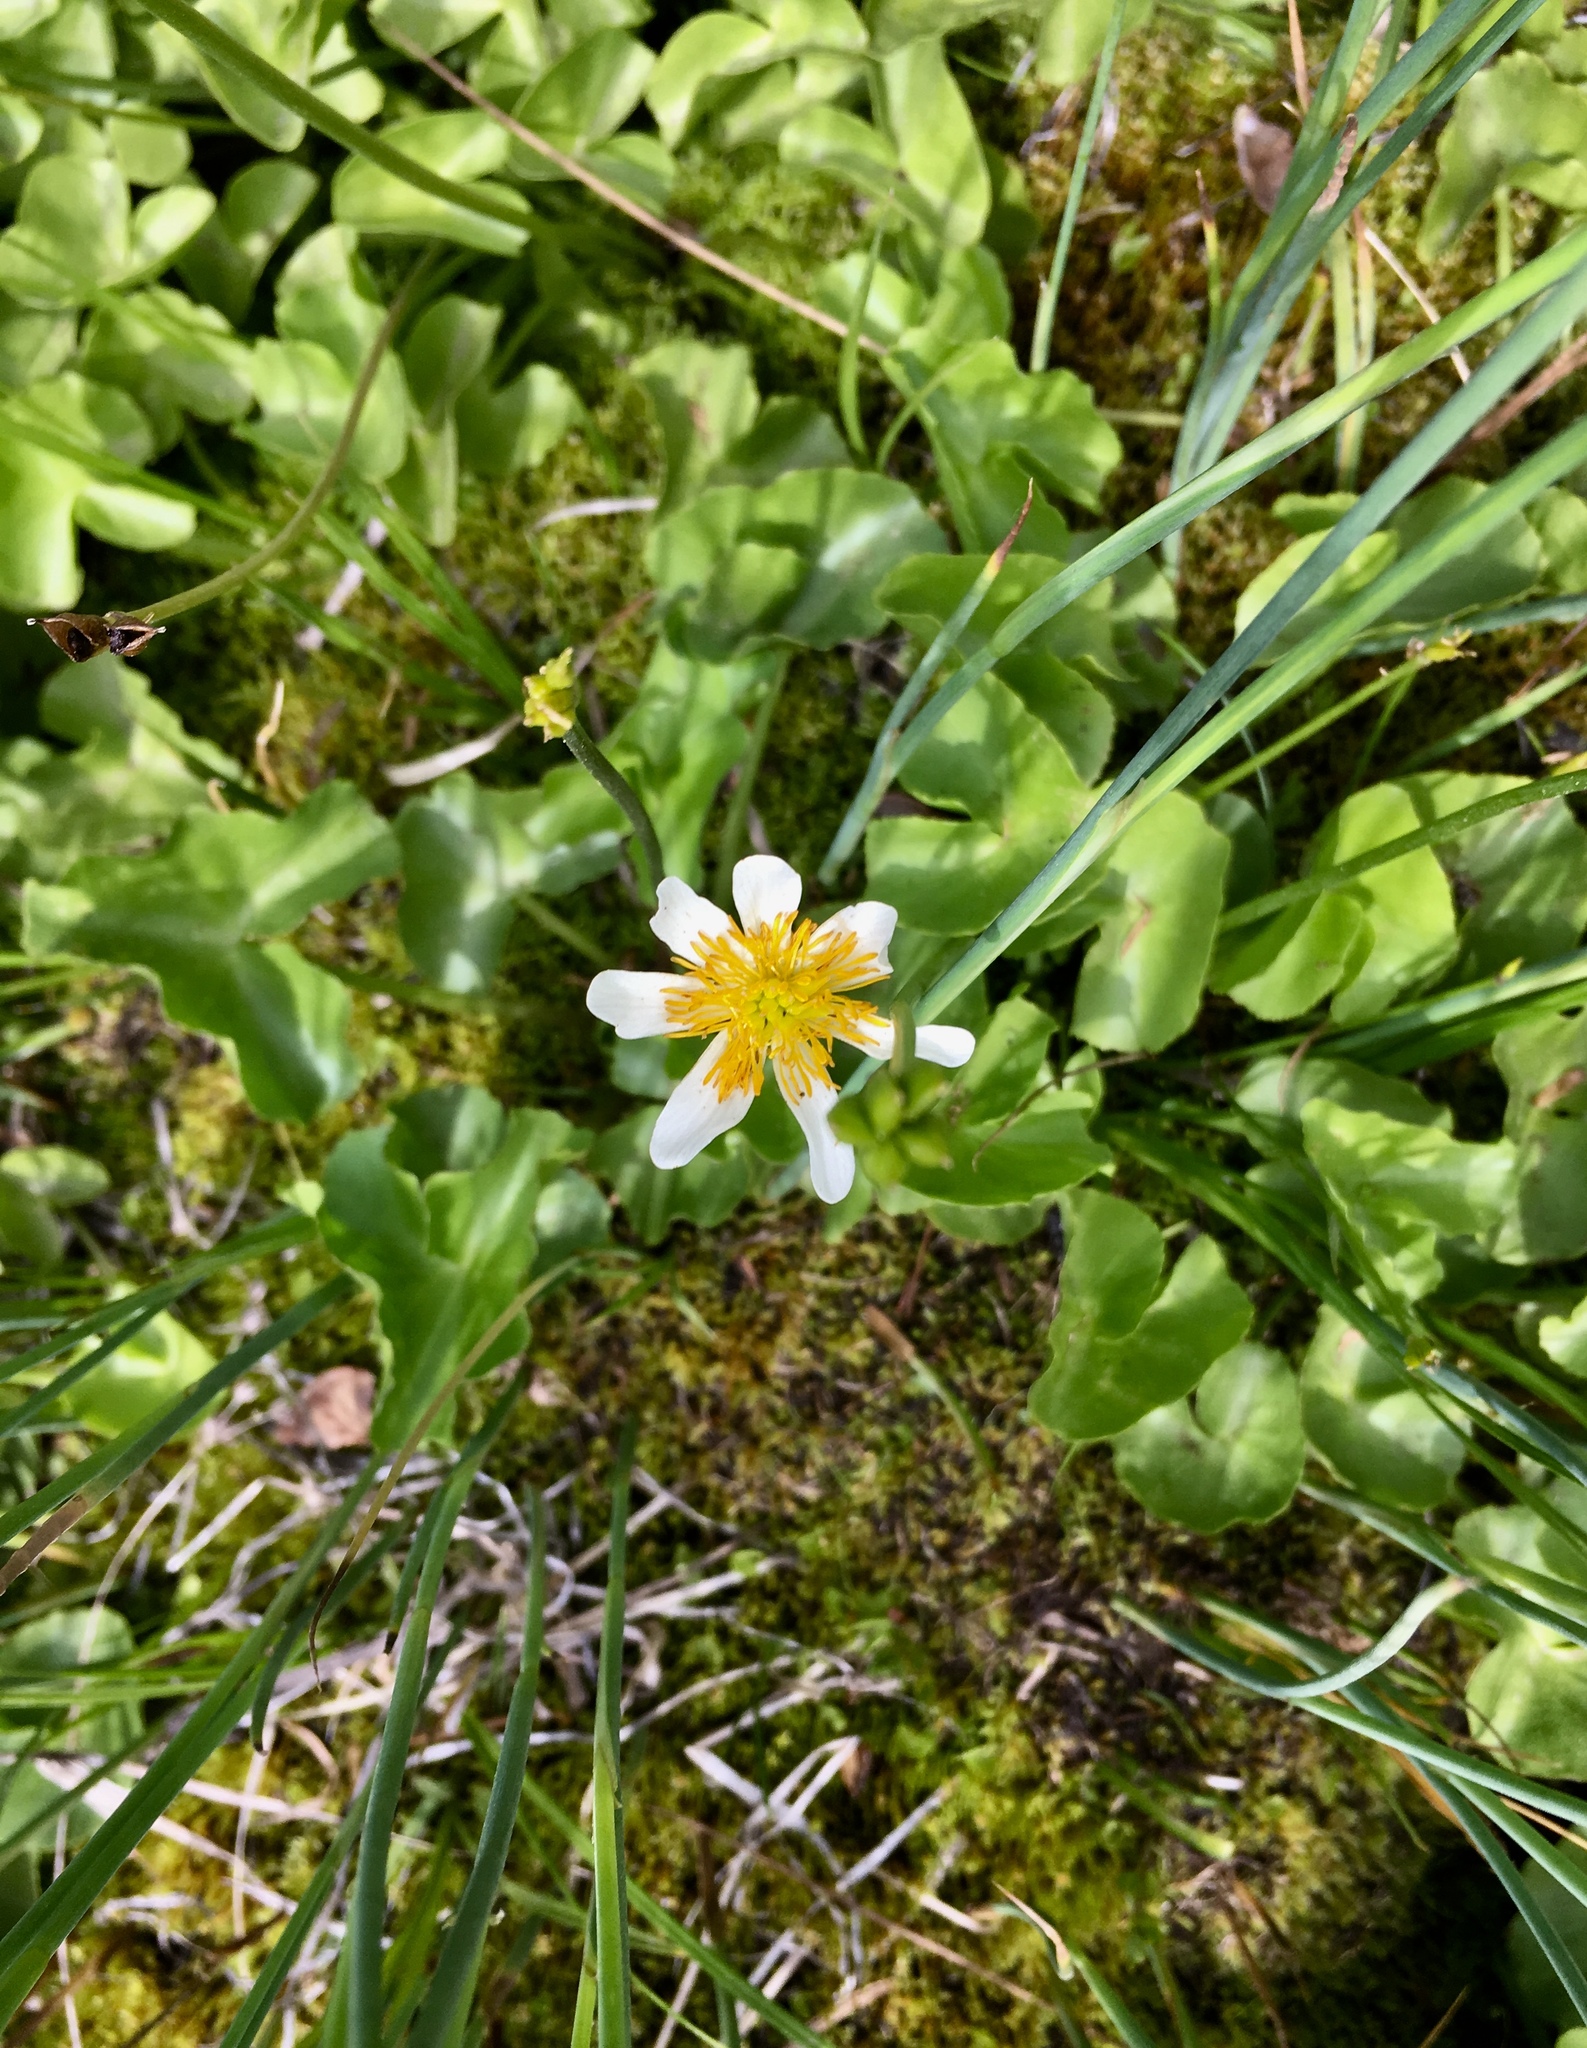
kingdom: Plantae
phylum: Tracheophyta
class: Magnoliopsida
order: Ranunculales
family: Ranunculaceae
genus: Caltha
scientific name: Caltha leptosepala
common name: Elkslip
